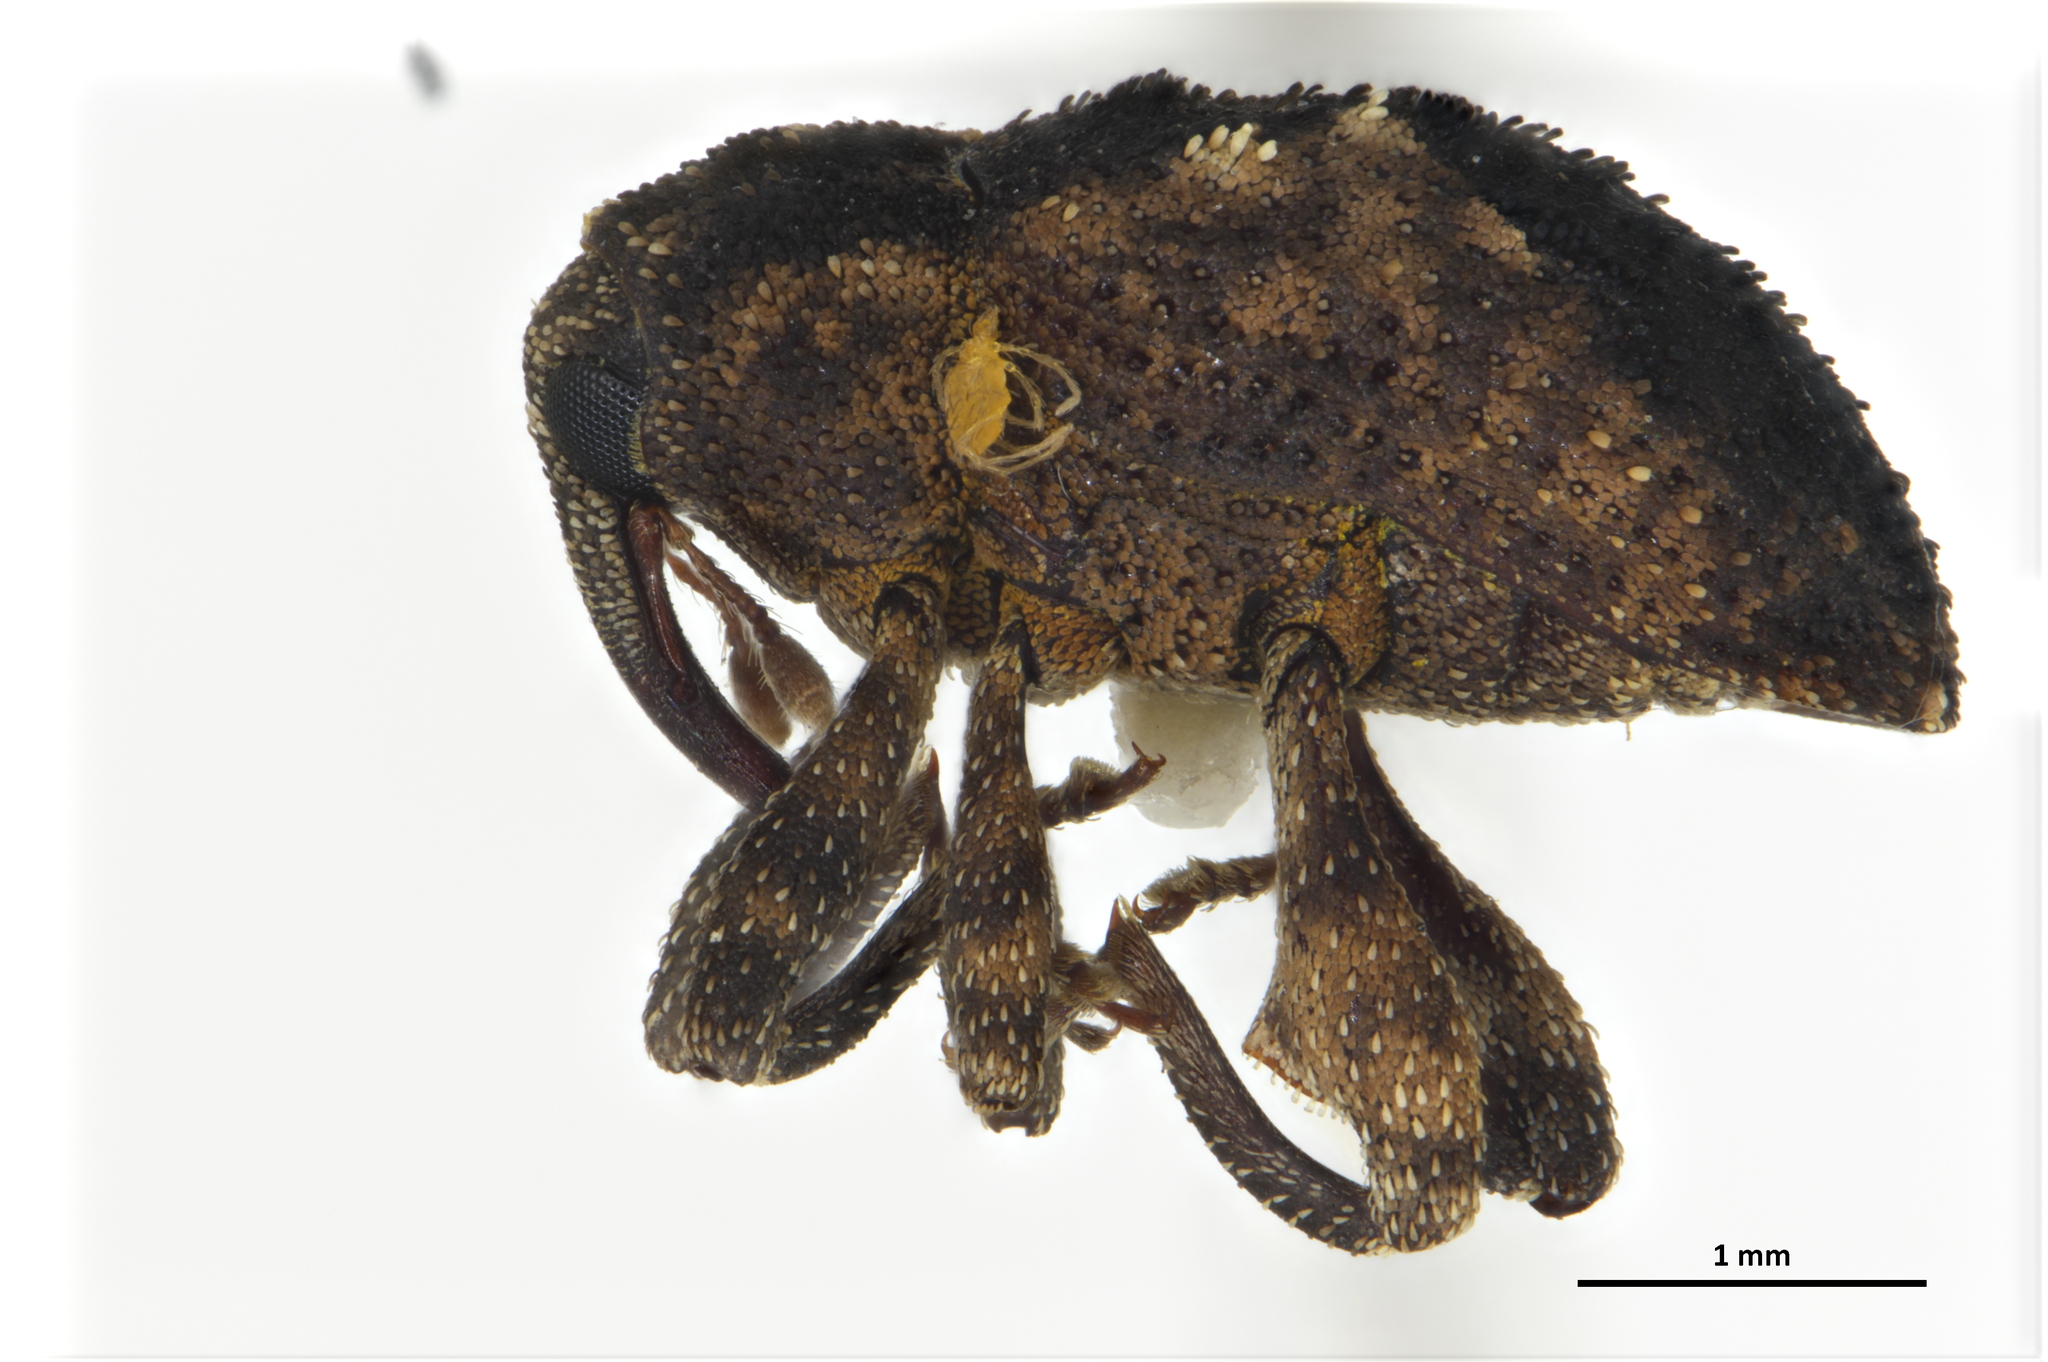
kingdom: Animalia
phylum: Arthropoda
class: Insecta
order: Coleoptera
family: Curculionidae
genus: Hyperiosoma
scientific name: Hyperiosoma falcatum
